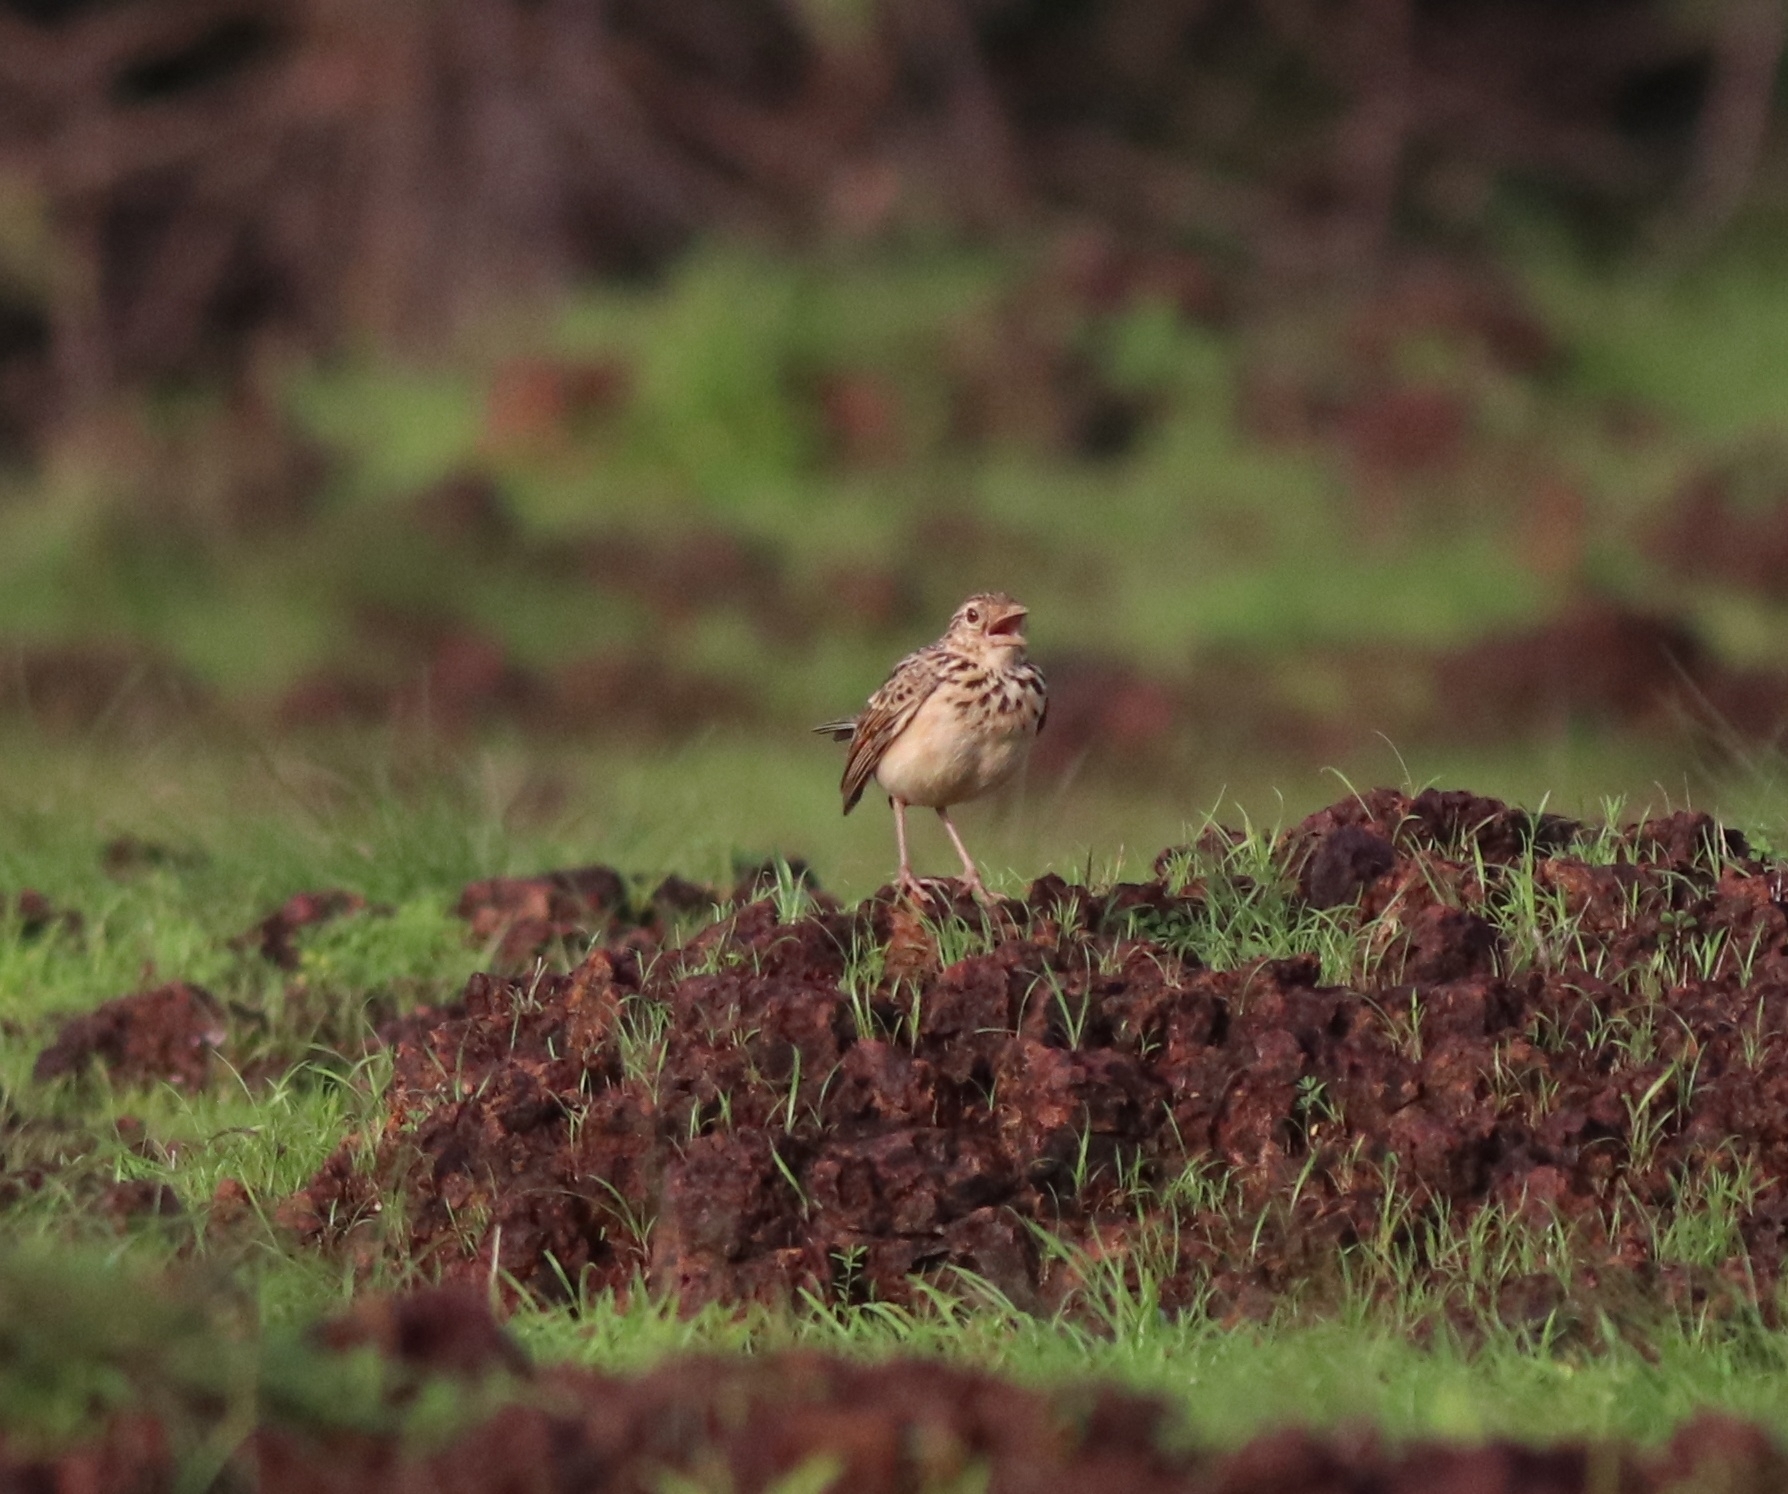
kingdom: Animalia
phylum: Chordata
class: Aves
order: Passeriformes
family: Alaudidae
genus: Mirafra
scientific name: Mirafra affinis
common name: Jerdon's bushlark
